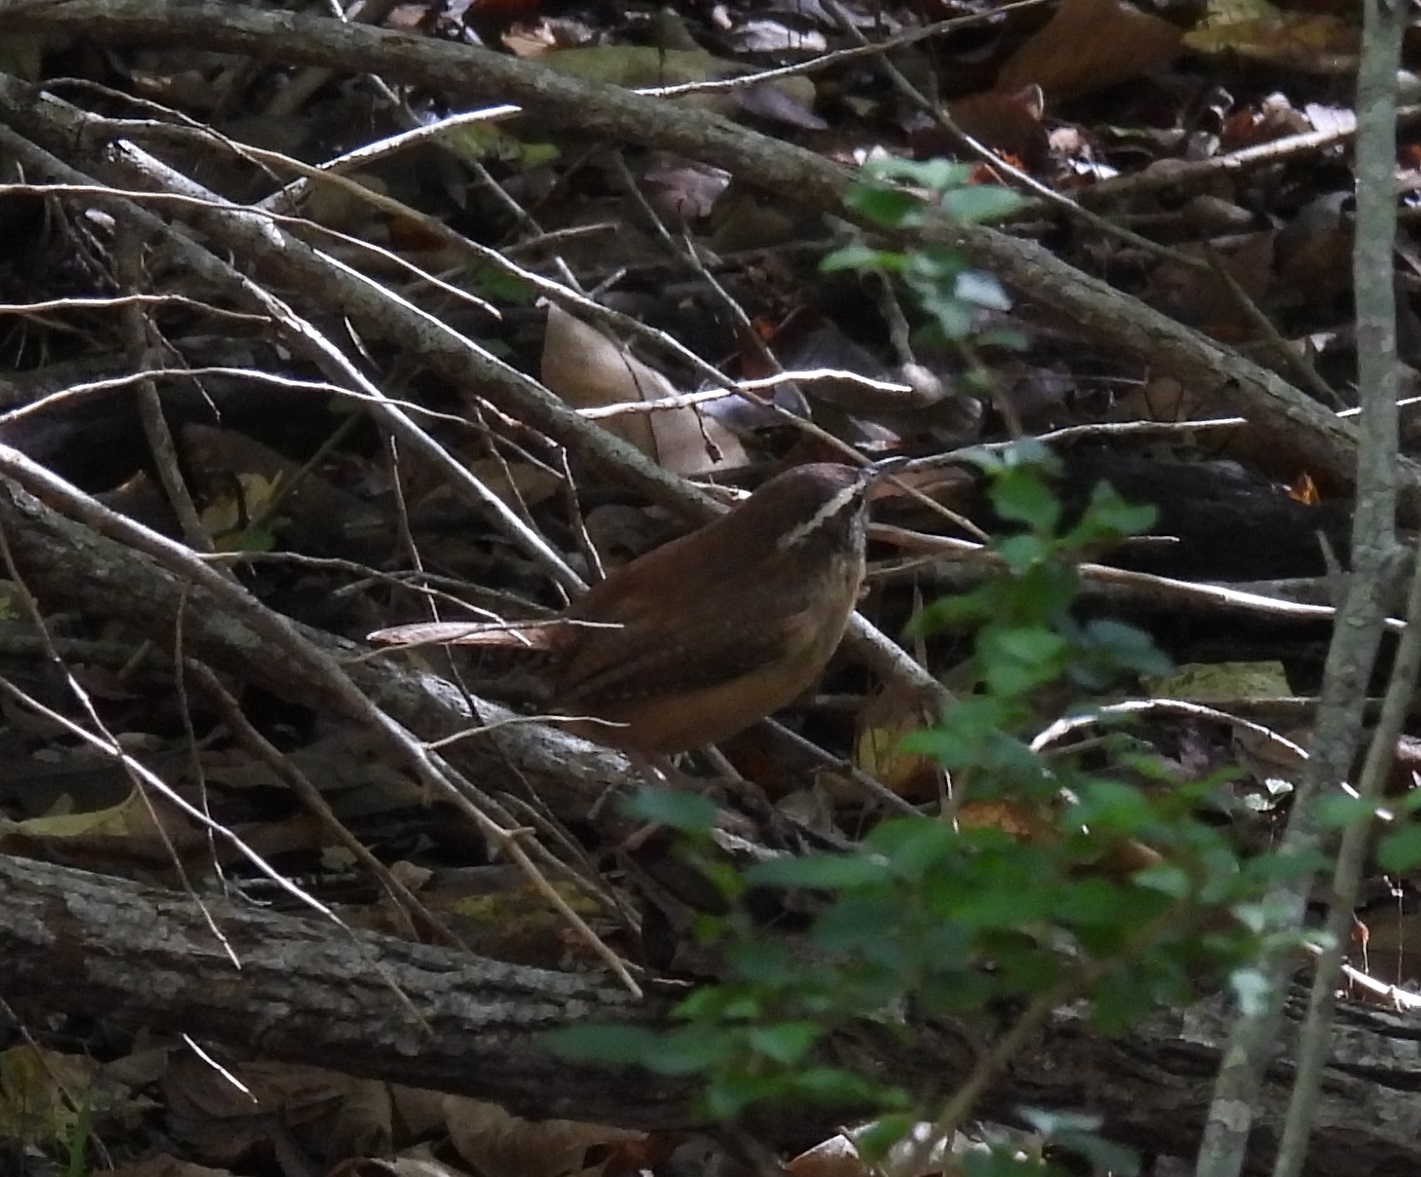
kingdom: Animalia
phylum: Chordata
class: Aves
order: Passeriformes
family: Troglodytidae
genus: Thryothorus
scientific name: Thryothorus ludovicianus
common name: Carolina wren
